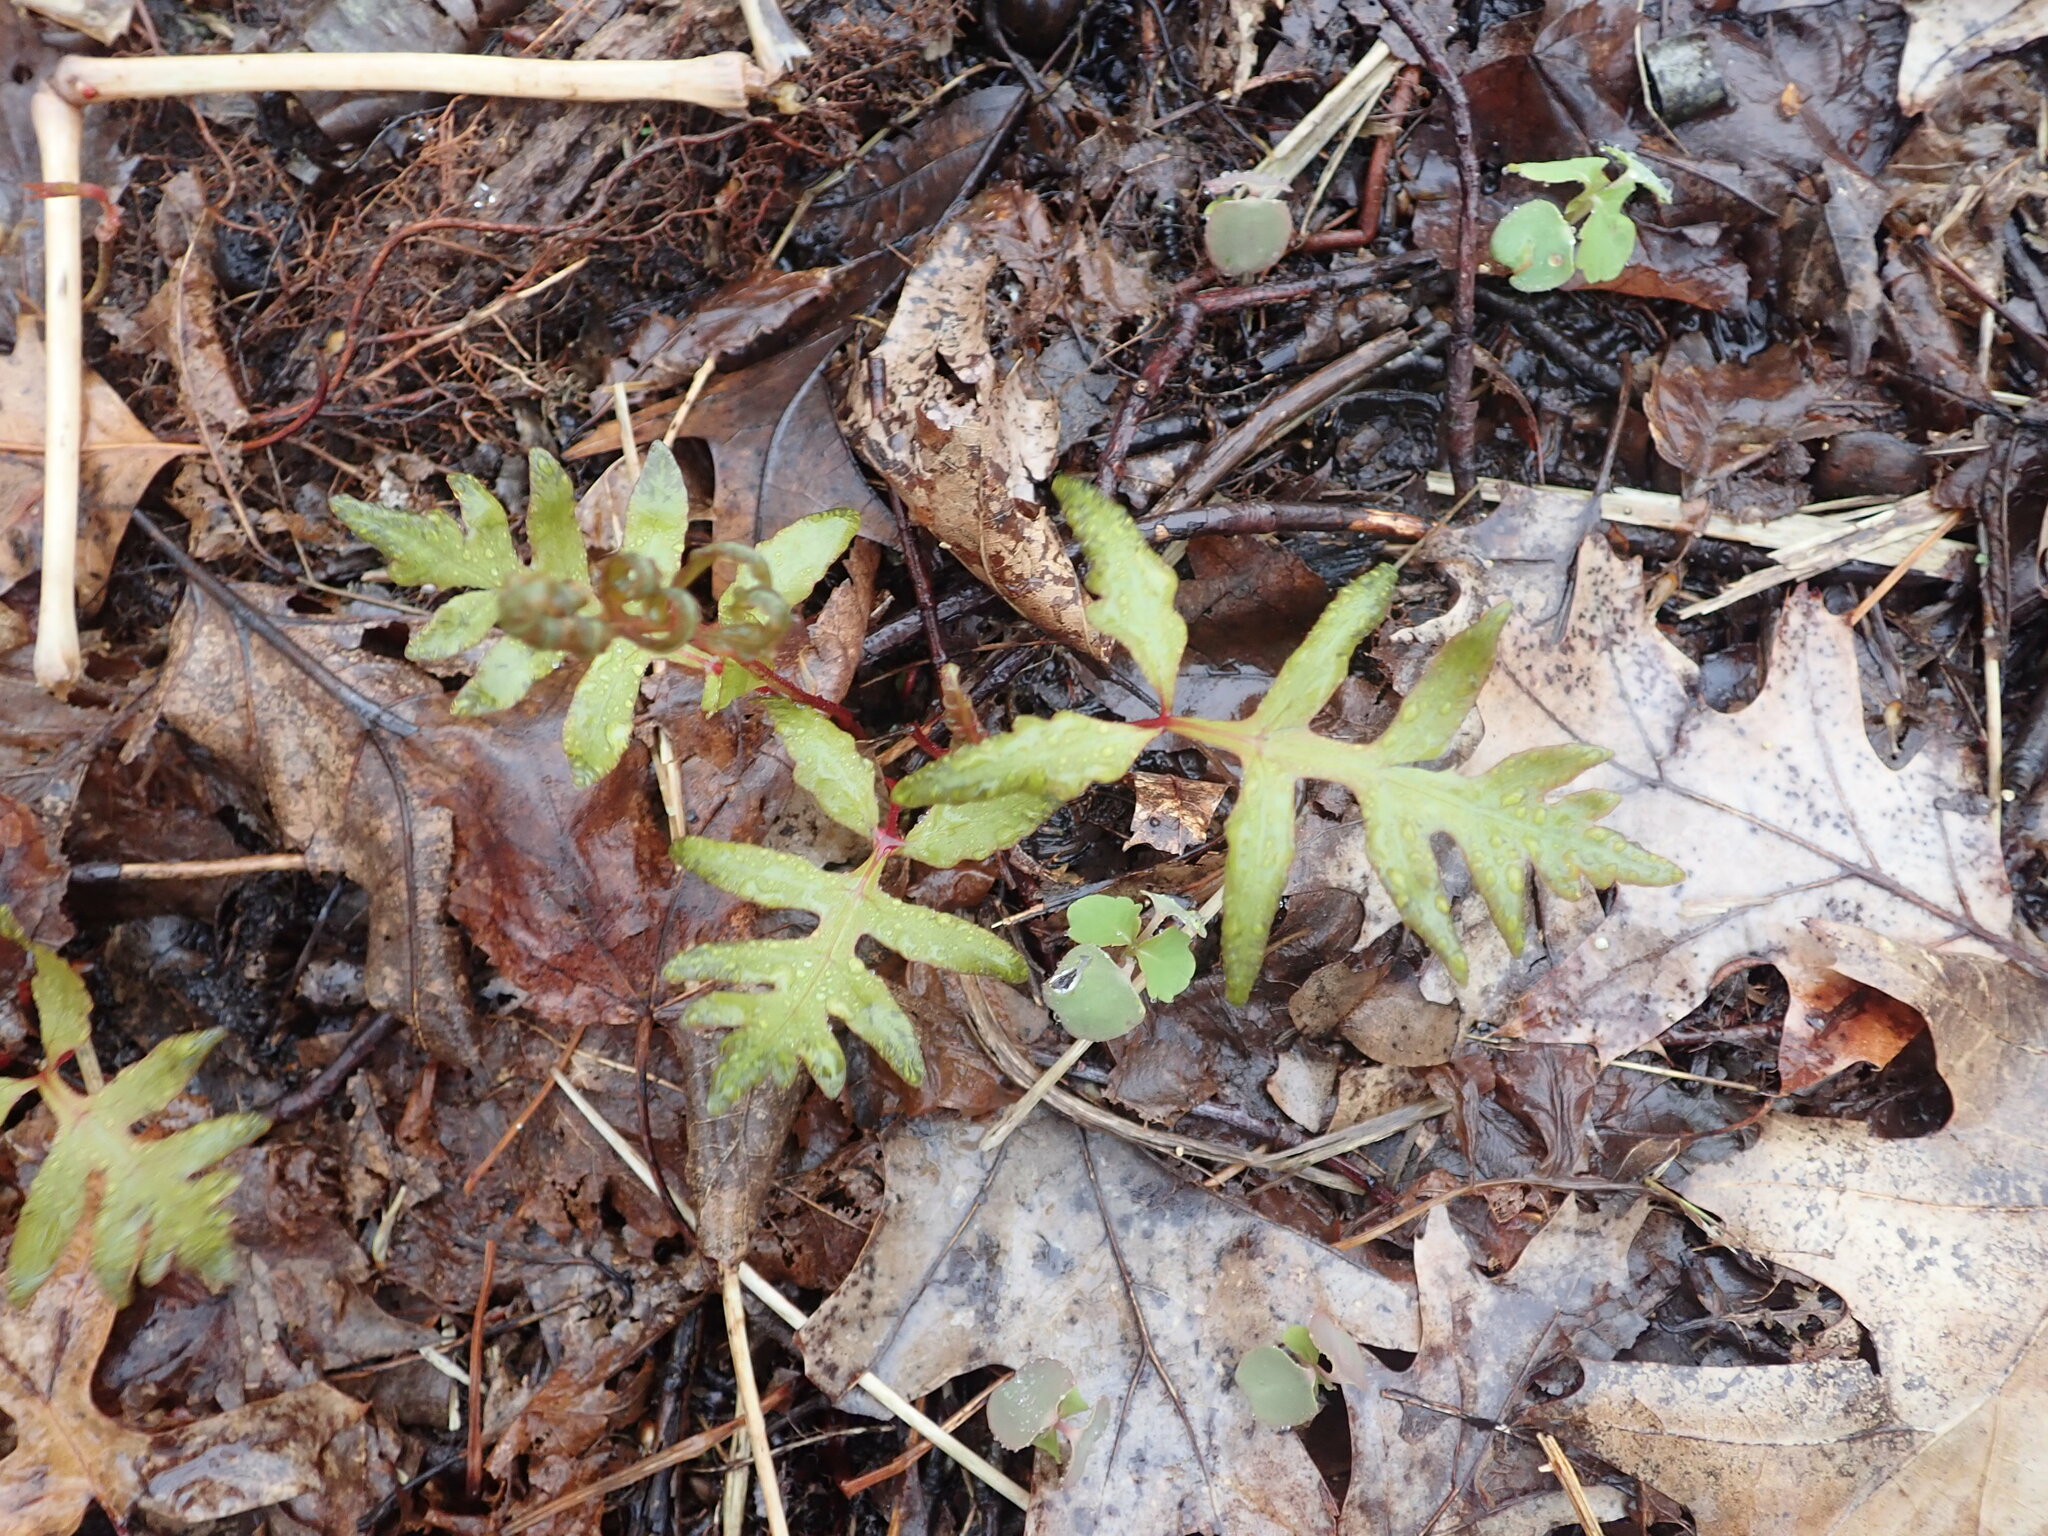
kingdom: Plantae
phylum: Tracheophyta
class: Polypodiopsida
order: Polypodiales
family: Onocleaceae
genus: Onoclea
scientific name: Onoclea sensibilis
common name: Sensitive fern
